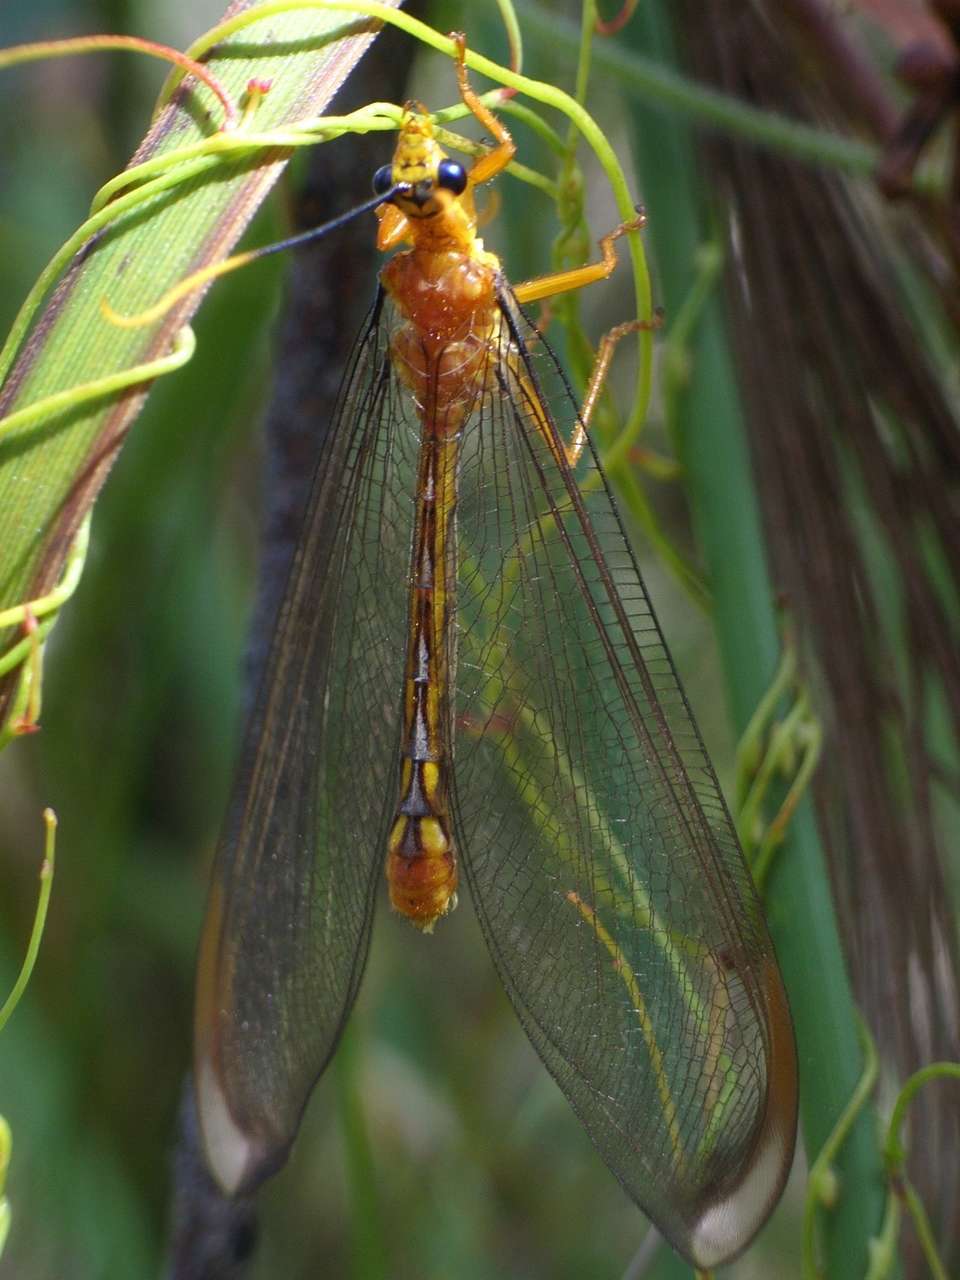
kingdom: Animalia
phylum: Arthropoda
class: Insecta
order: Neuroptera
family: Nymphidae
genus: Nymphes
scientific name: Nymphes myrmeleonoides
